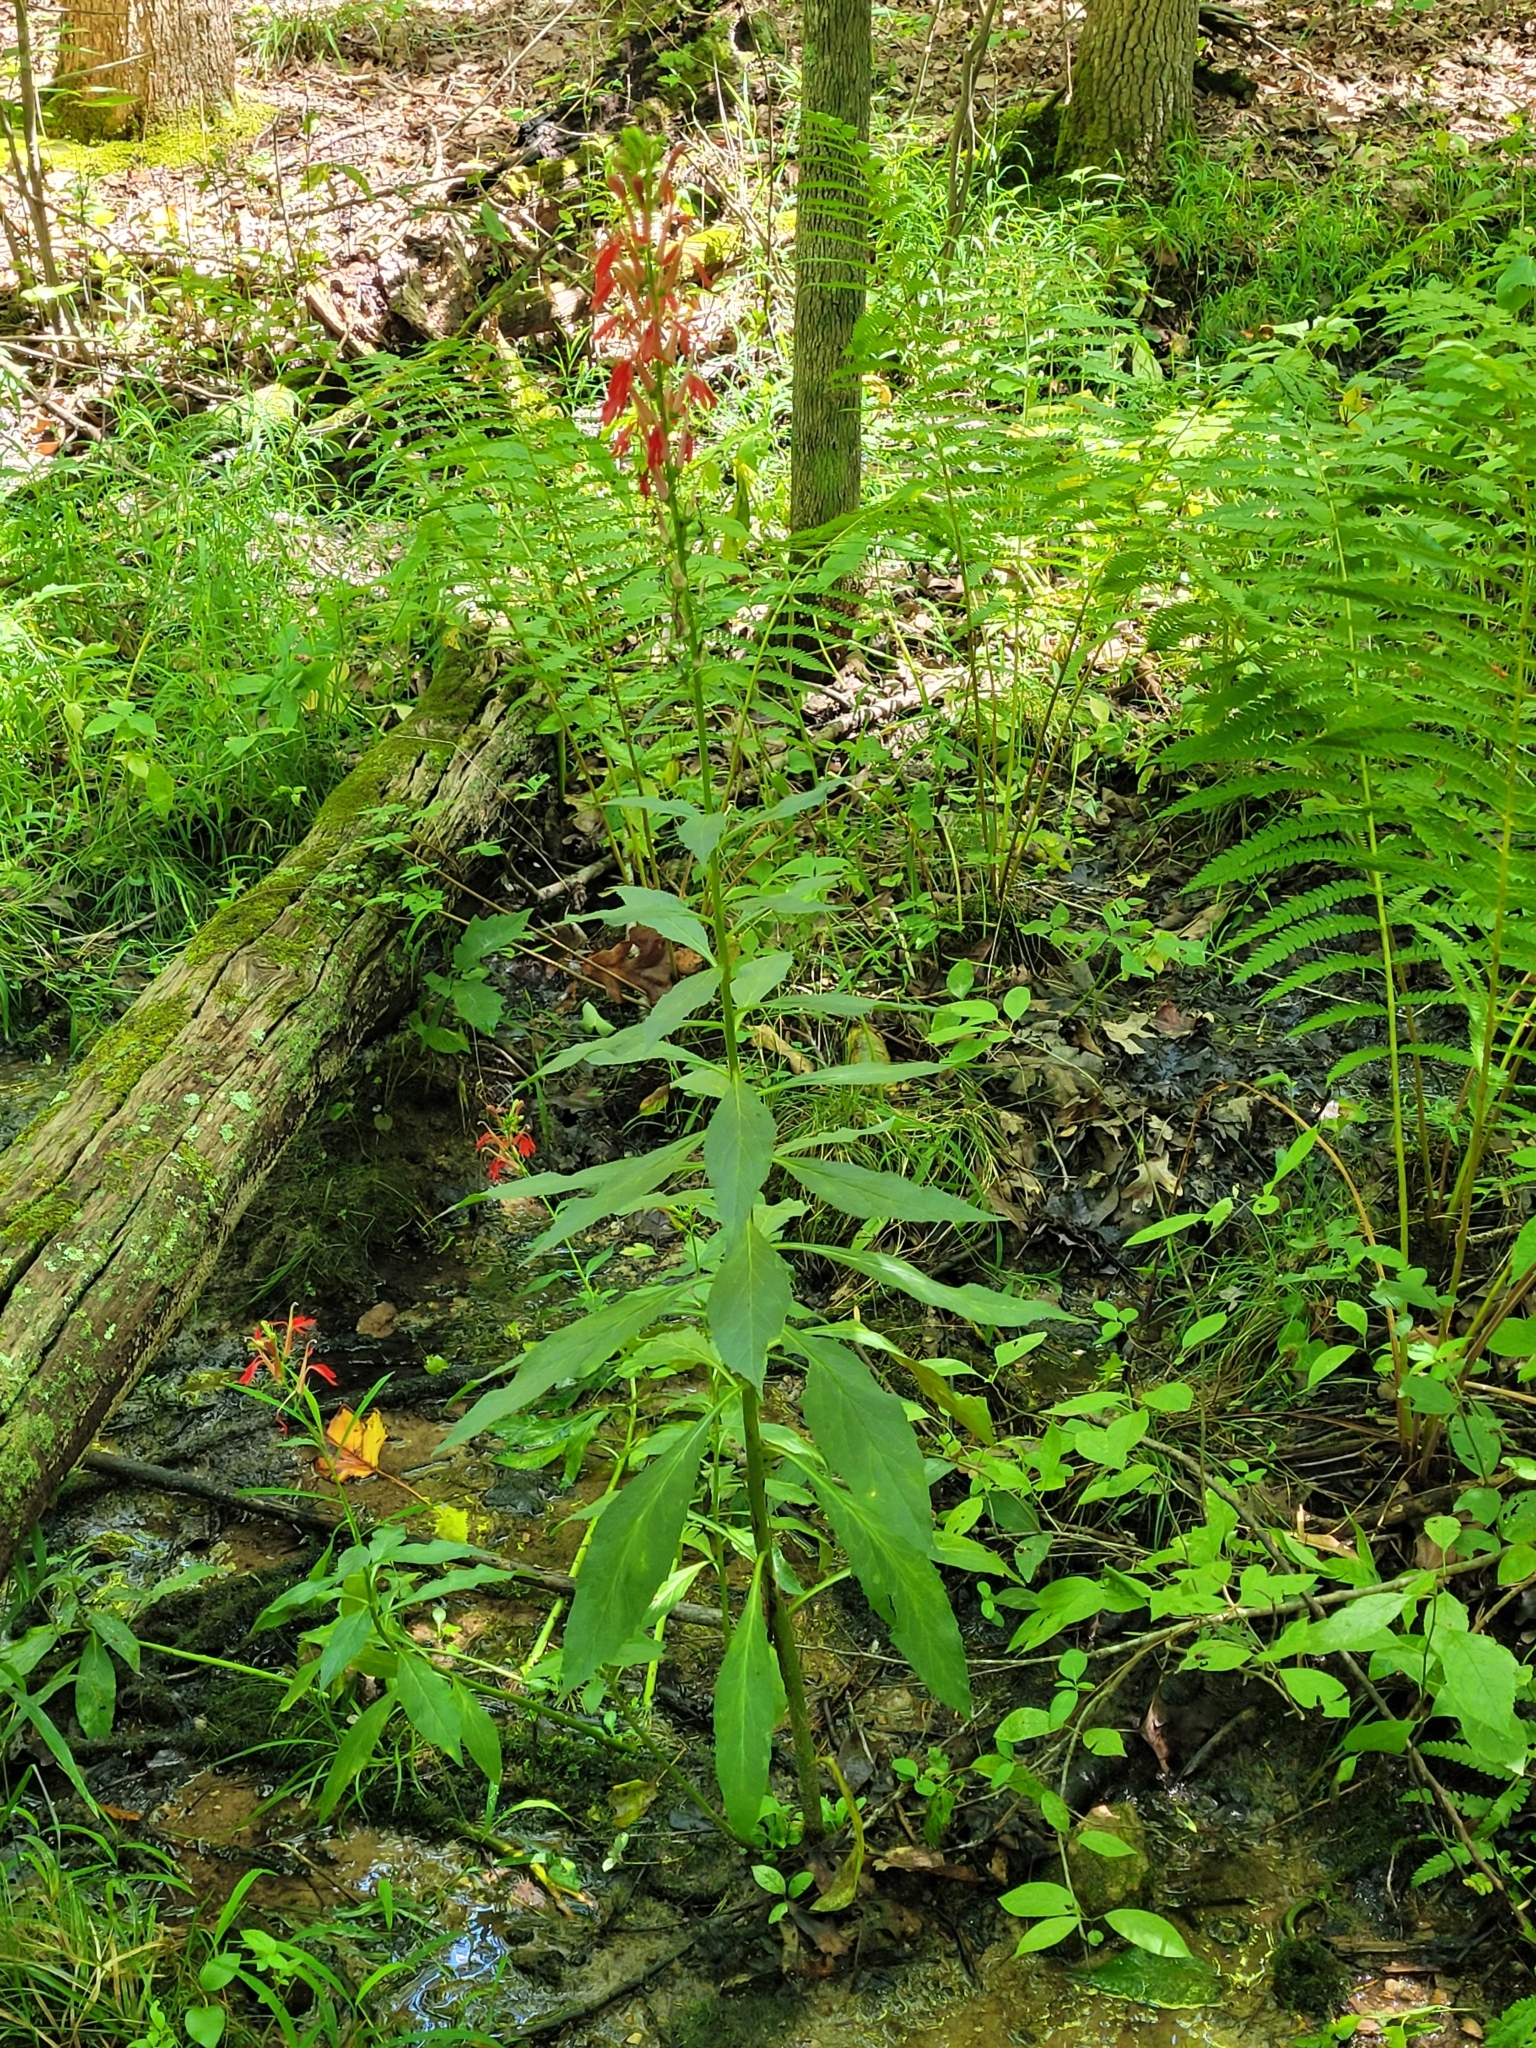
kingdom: Plantae
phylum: Tracheophyta
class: Magnoliopsida
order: Asterales
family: Campanulaceae
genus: Lobelia
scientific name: Lobelia cardinalis
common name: Cardinal flower
